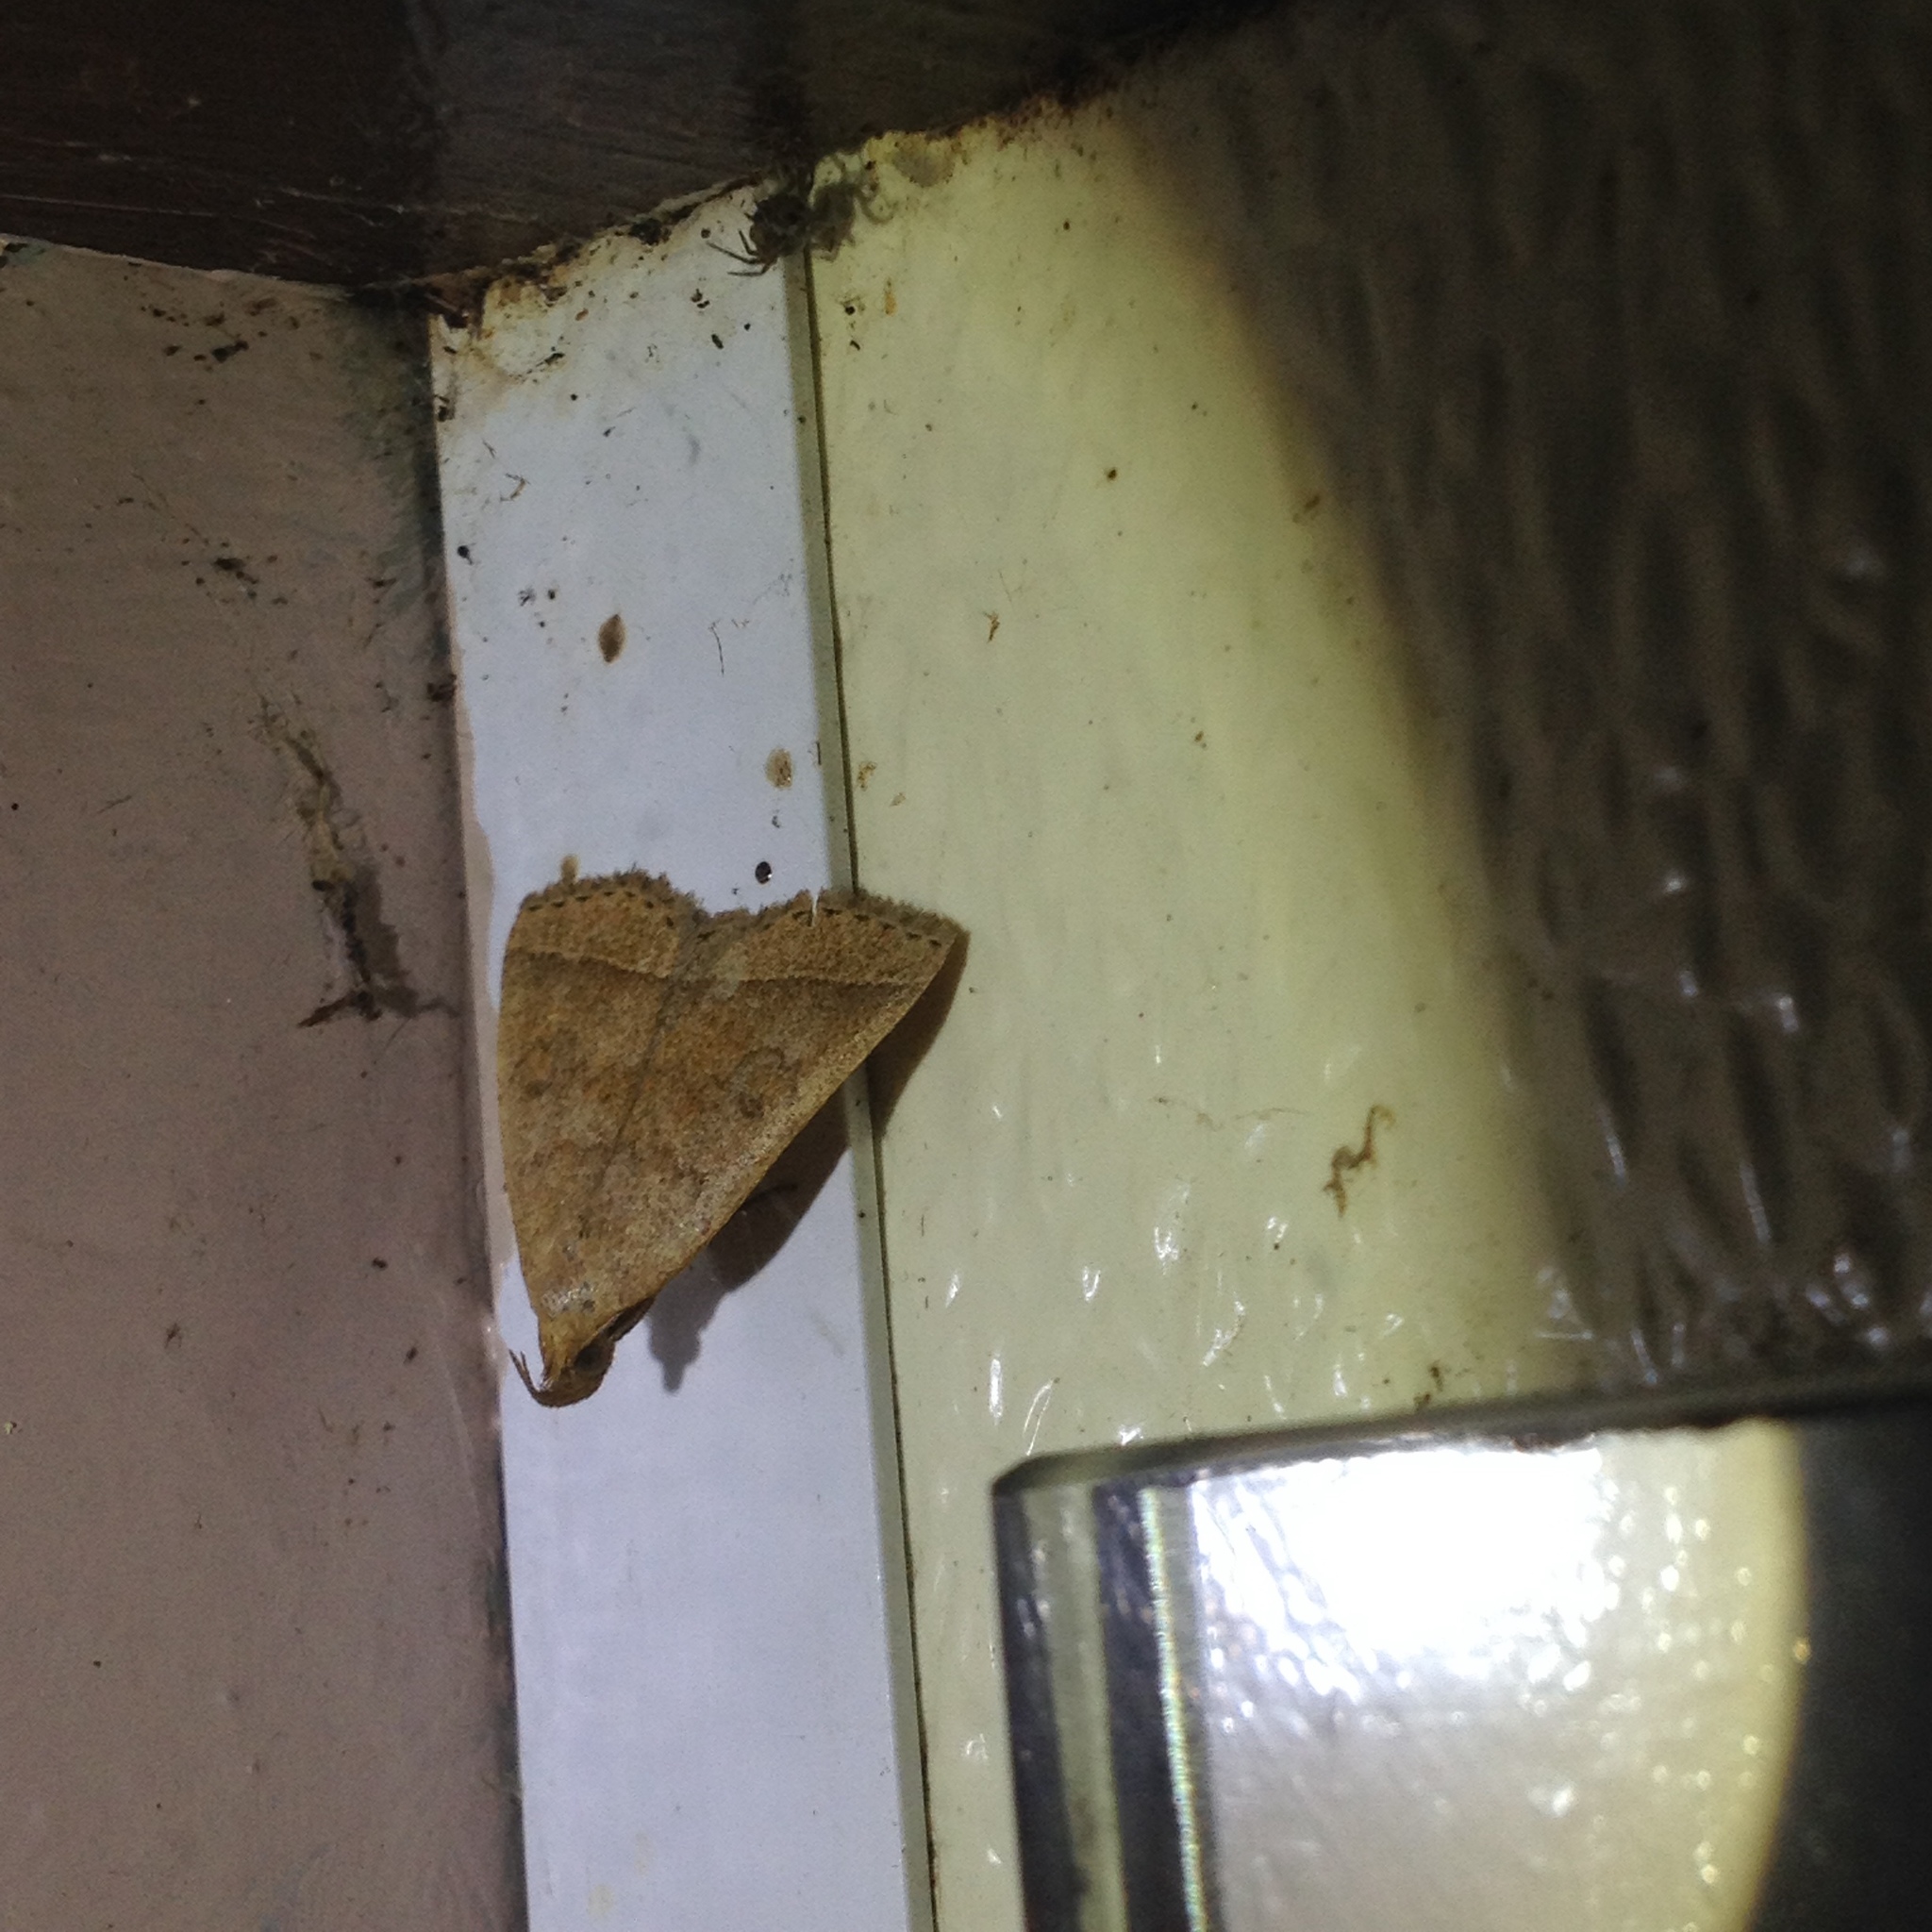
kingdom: Animalia
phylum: Arthropoda
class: Insecta
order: Lepidoptera
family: Erebidae
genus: Zanclognatha
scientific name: Zanclognatha jacchusalis
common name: Yellowish zanclognatha
